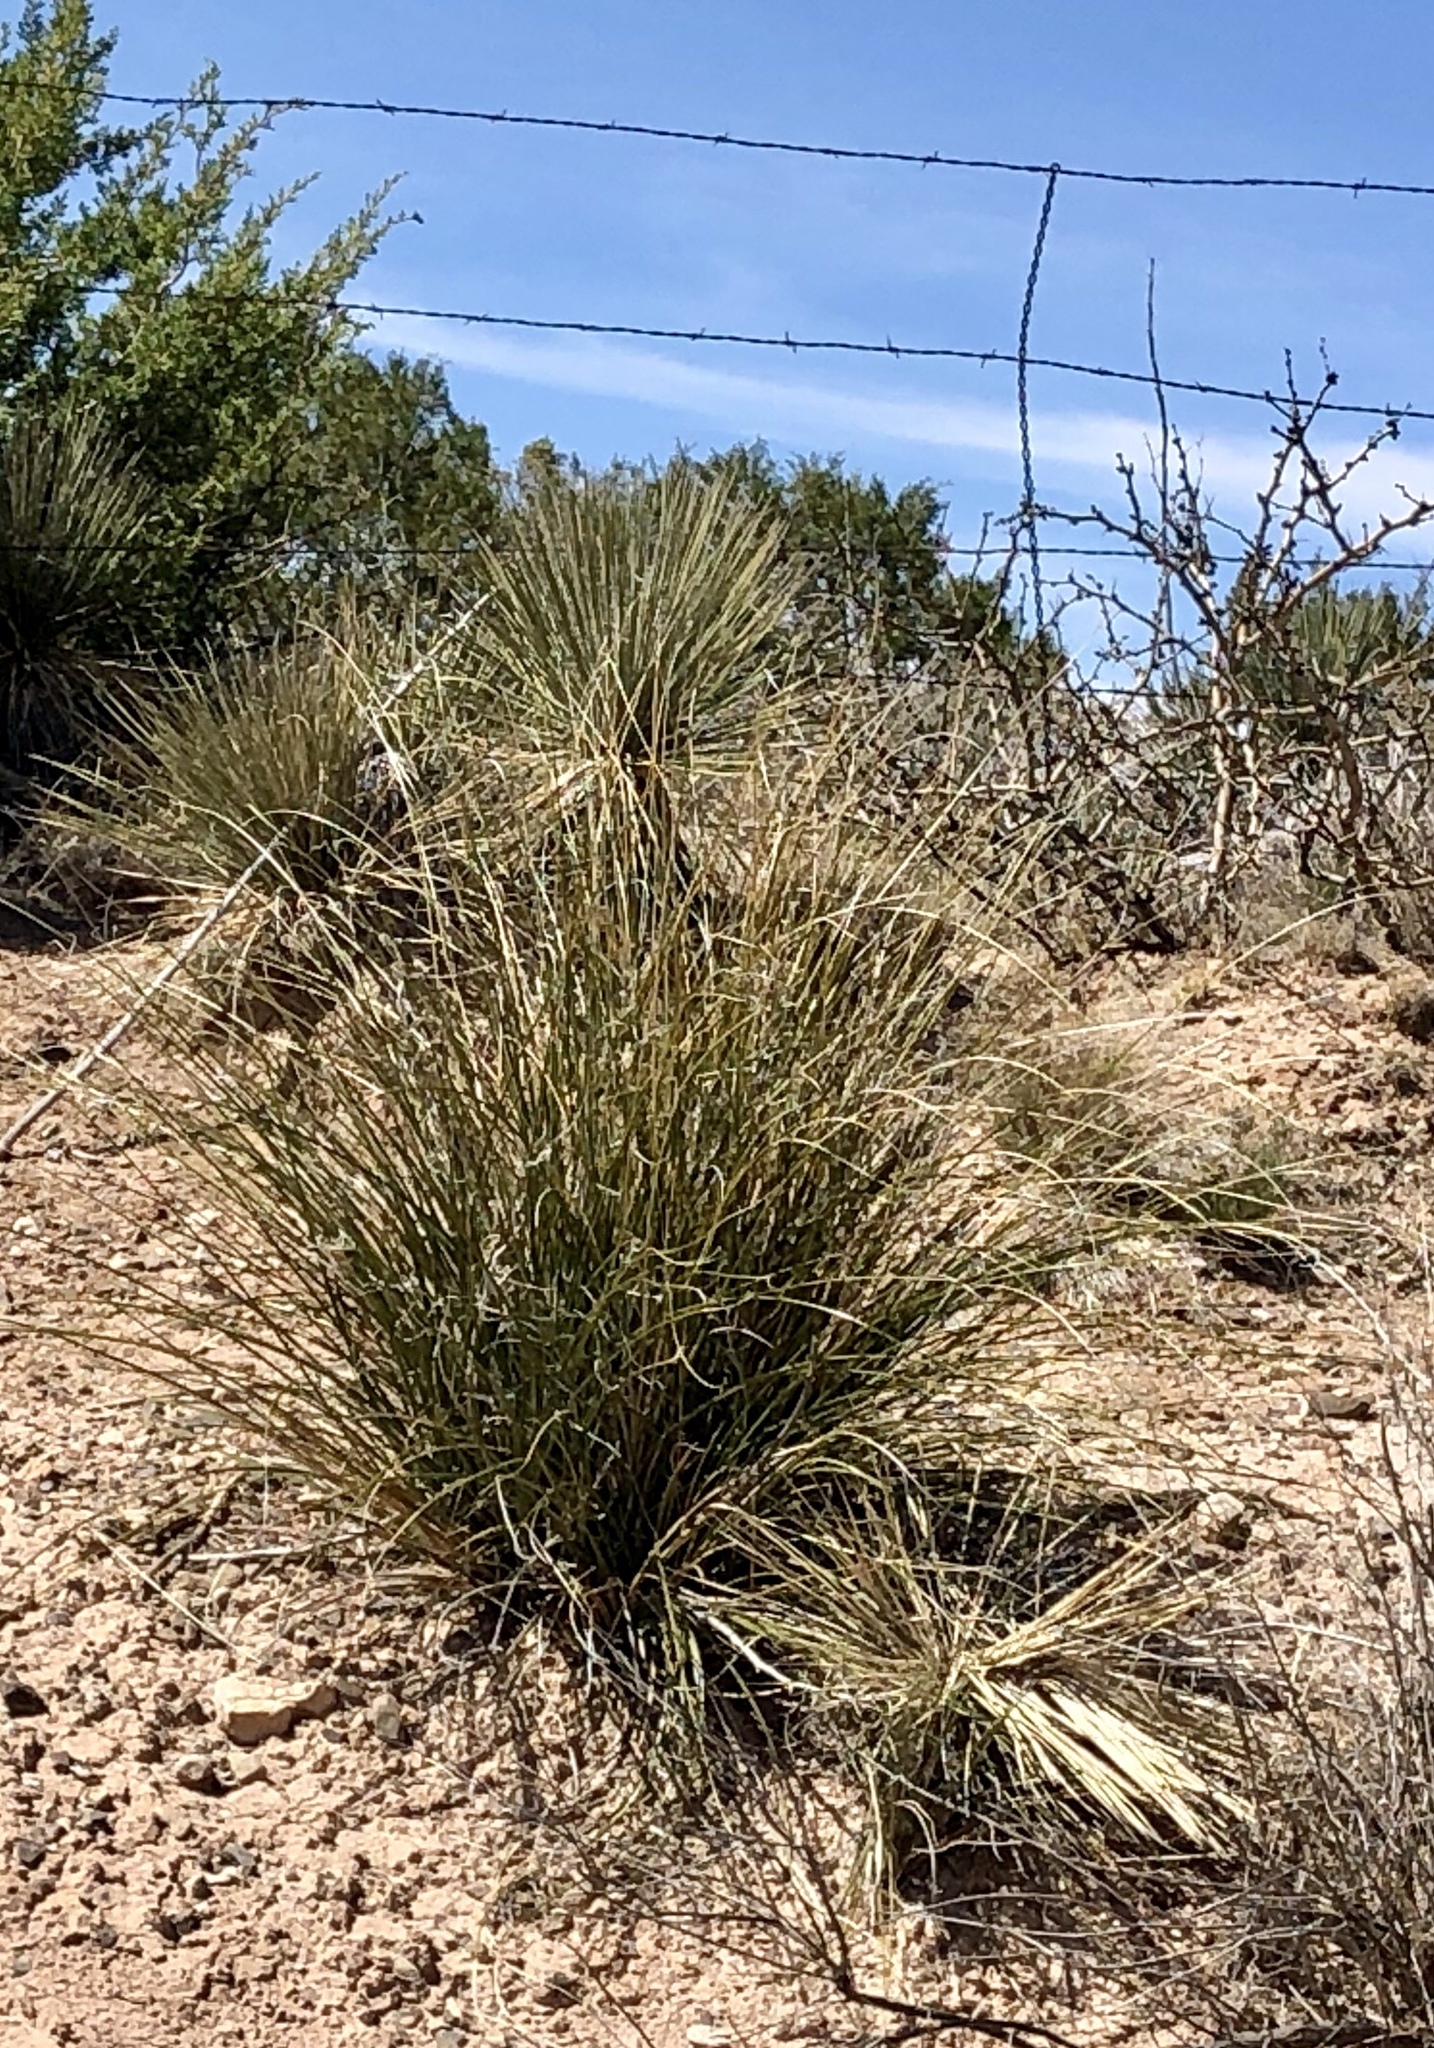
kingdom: Plantae
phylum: Tracheophyta
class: Liliopsida
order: Asparagales
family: Asparagaceae
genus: Nolina
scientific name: Nolina microcarpa
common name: Bear-grass
